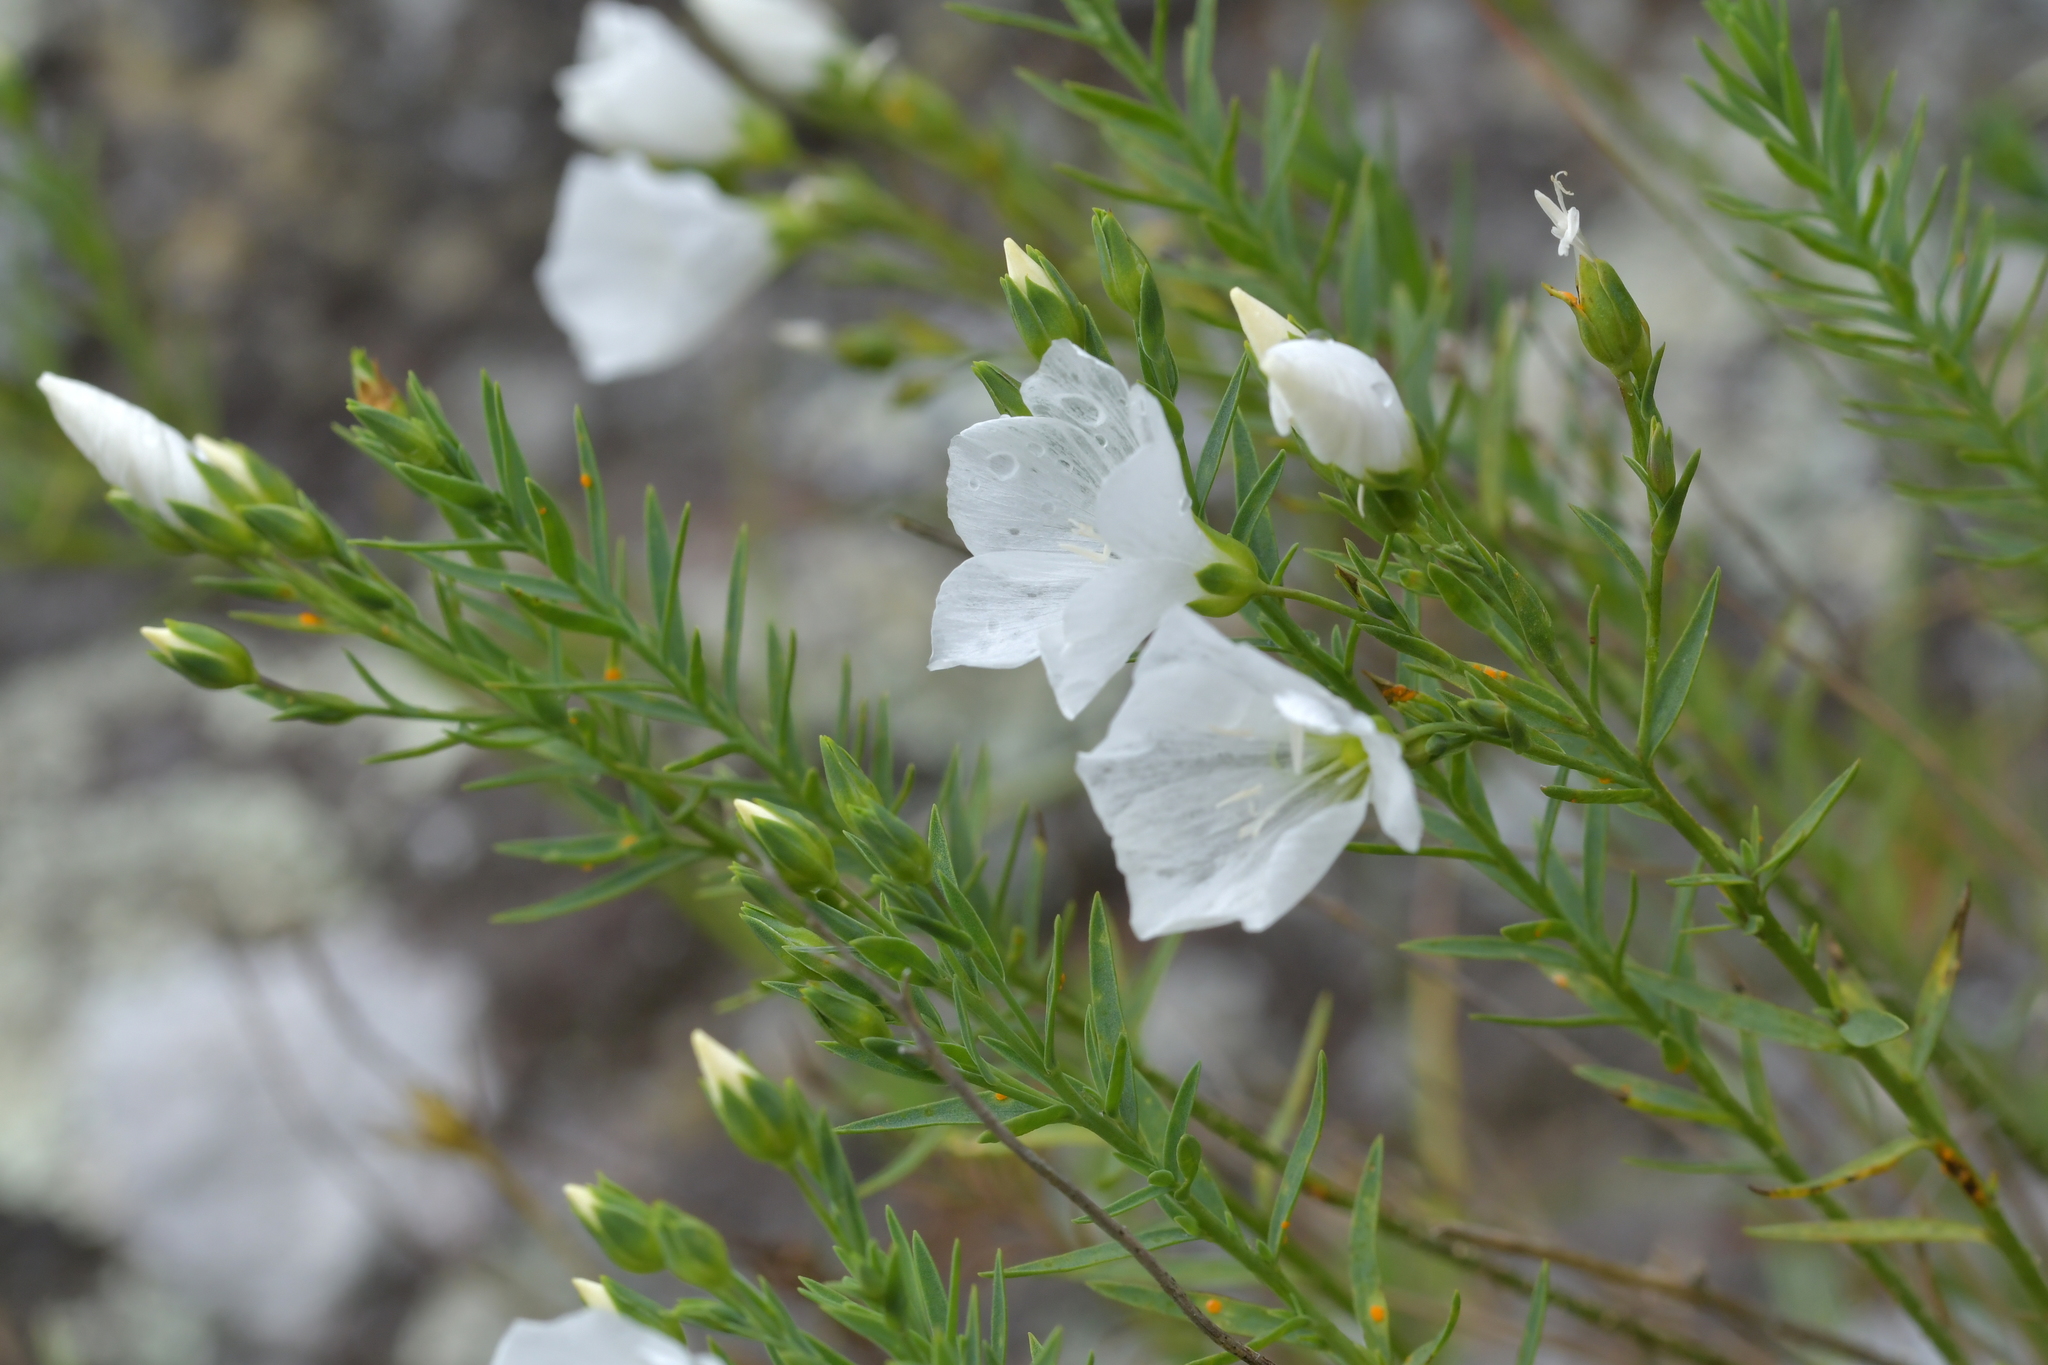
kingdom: Plantae
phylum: Tracheophyta
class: Magnoliopsida
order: Malpighiales
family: Linaceae
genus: Linum
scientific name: Linum monogynum
